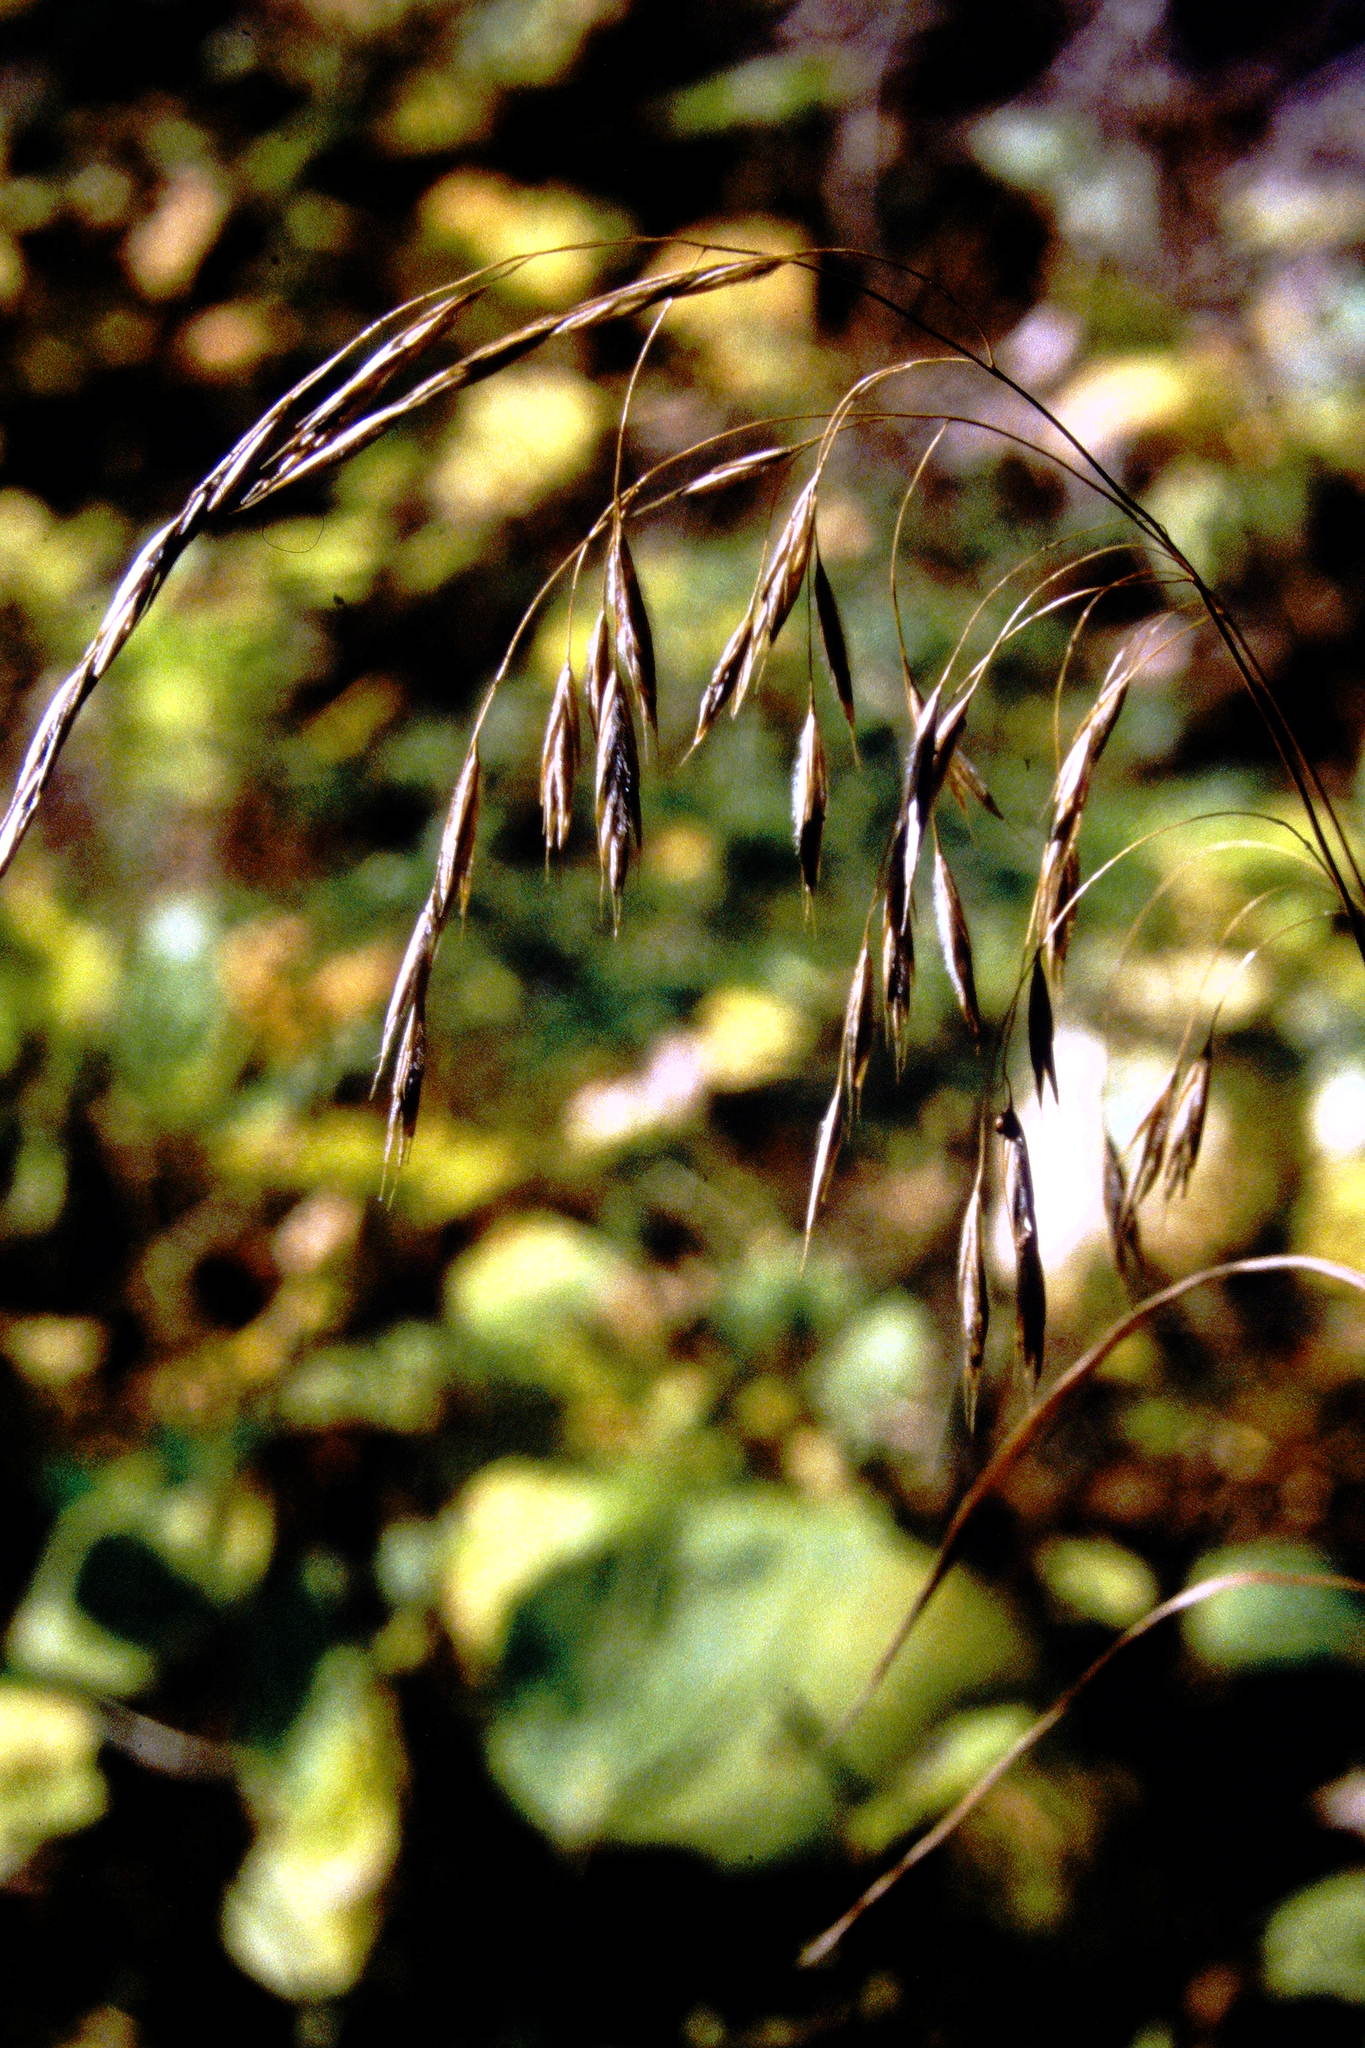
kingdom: Plantae
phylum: Tracheophyta
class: Liliopsida
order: Poales
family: Poaceae
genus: Bromus
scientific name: Bromus ciliatus
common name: Fringe brome
